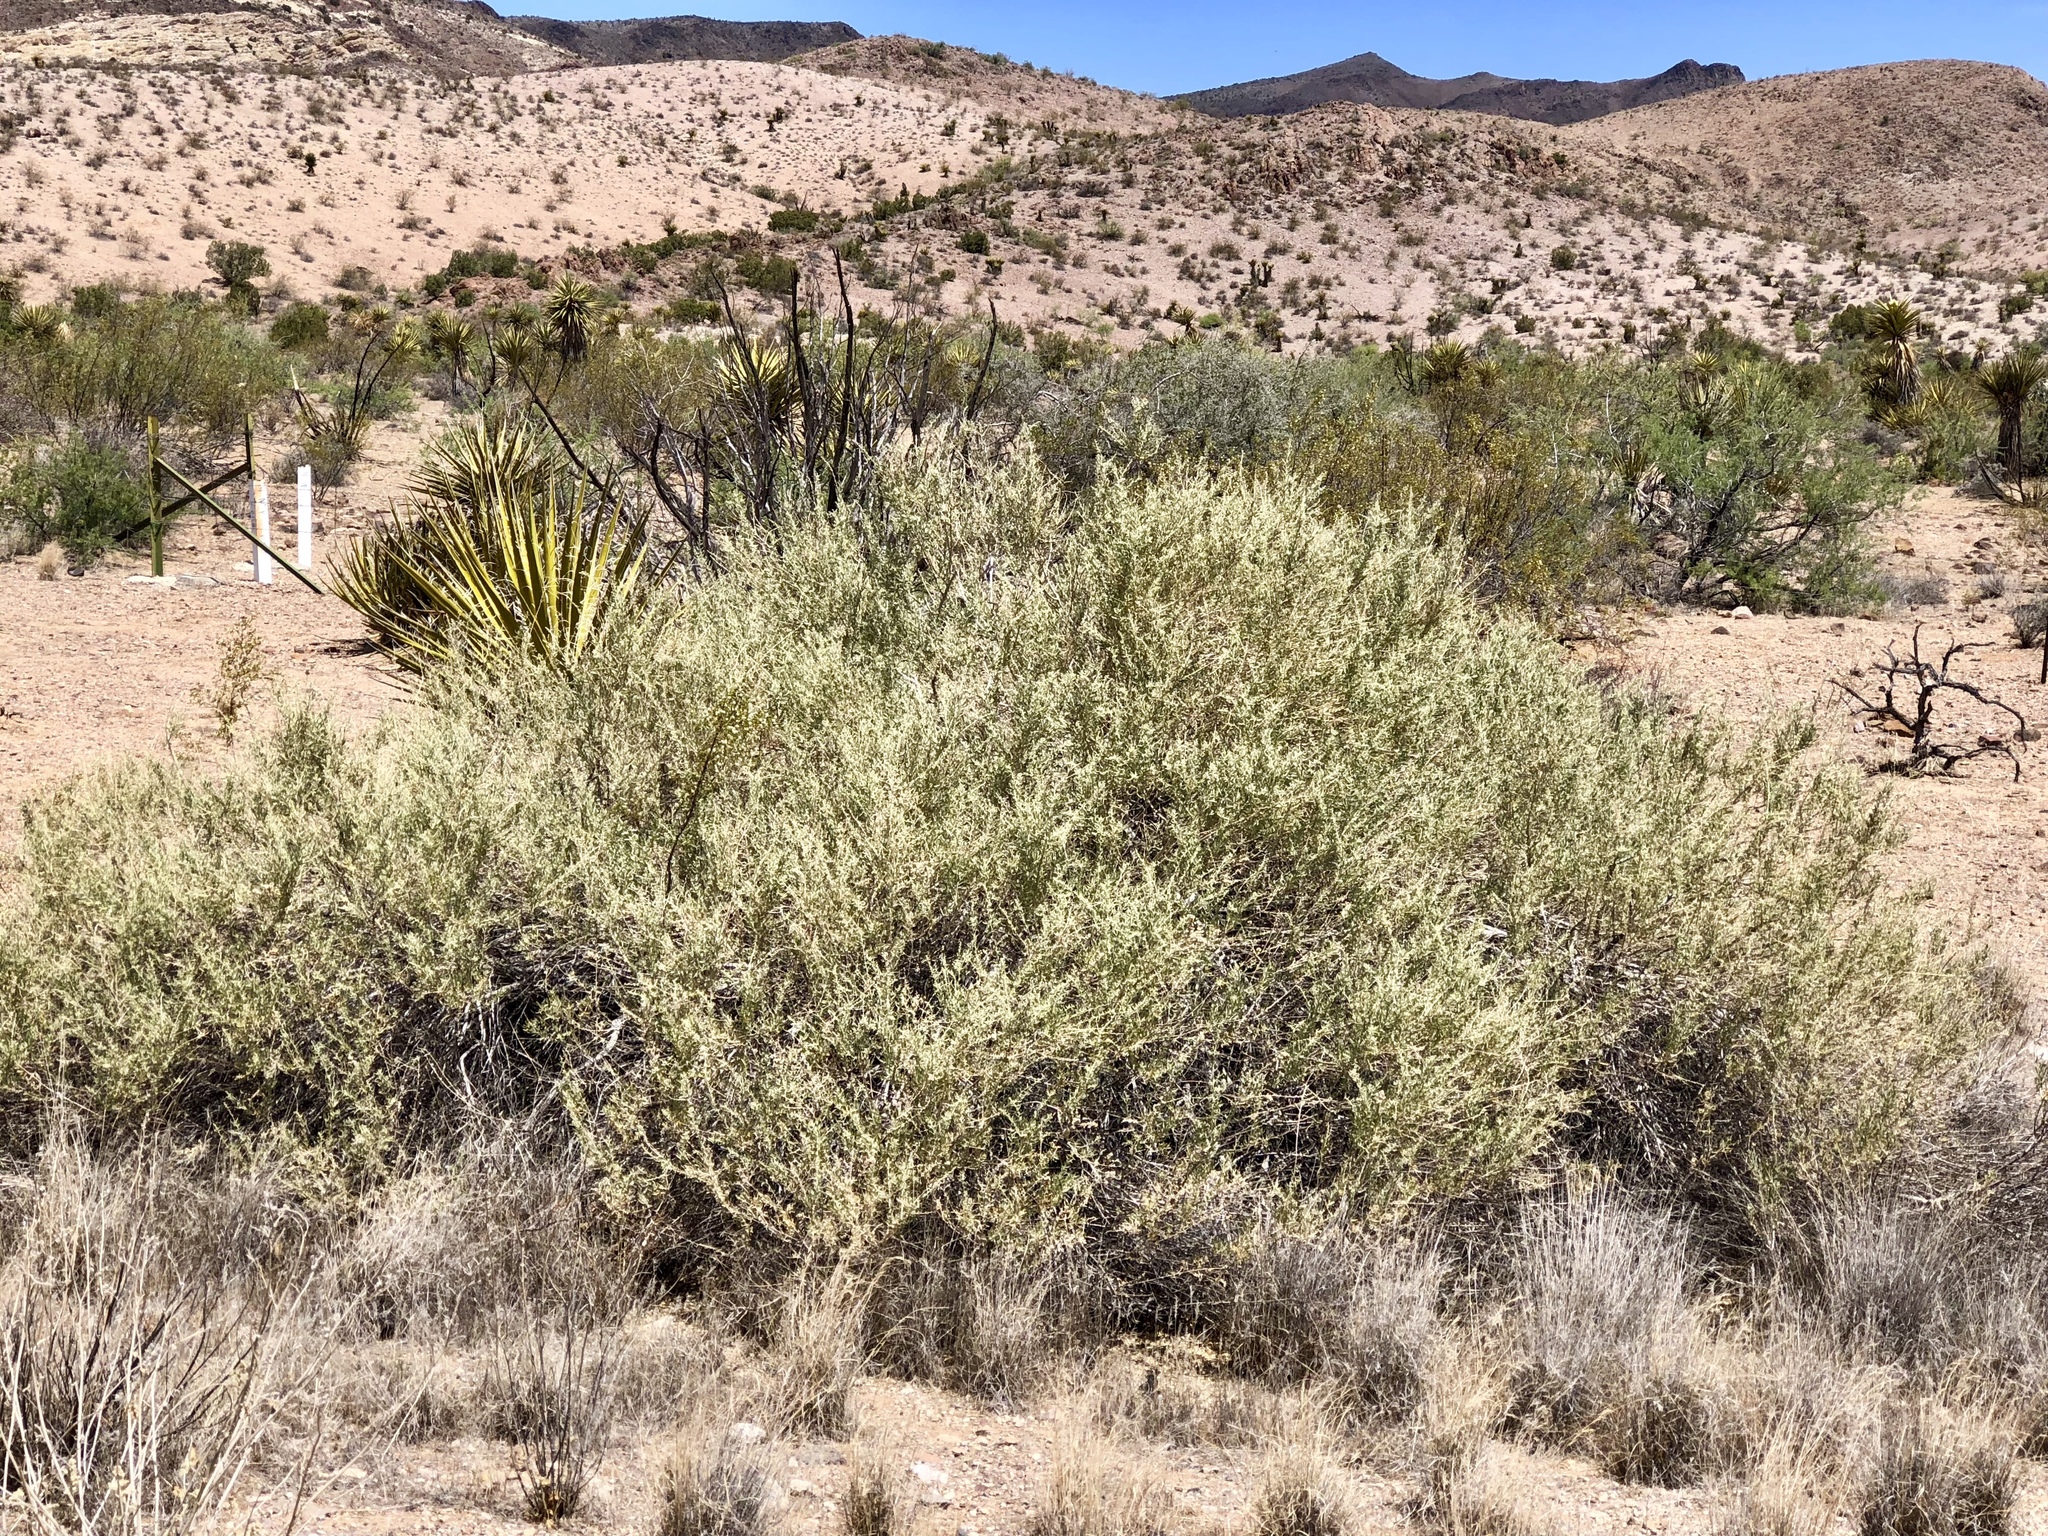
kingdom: Plantae
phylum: Tracheophyta
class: Magnoliopsida
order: Caryophyllales
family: Amaranthaceae
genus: Atriplex
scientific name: Atriplex canescens
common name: Four-wing saltbush
